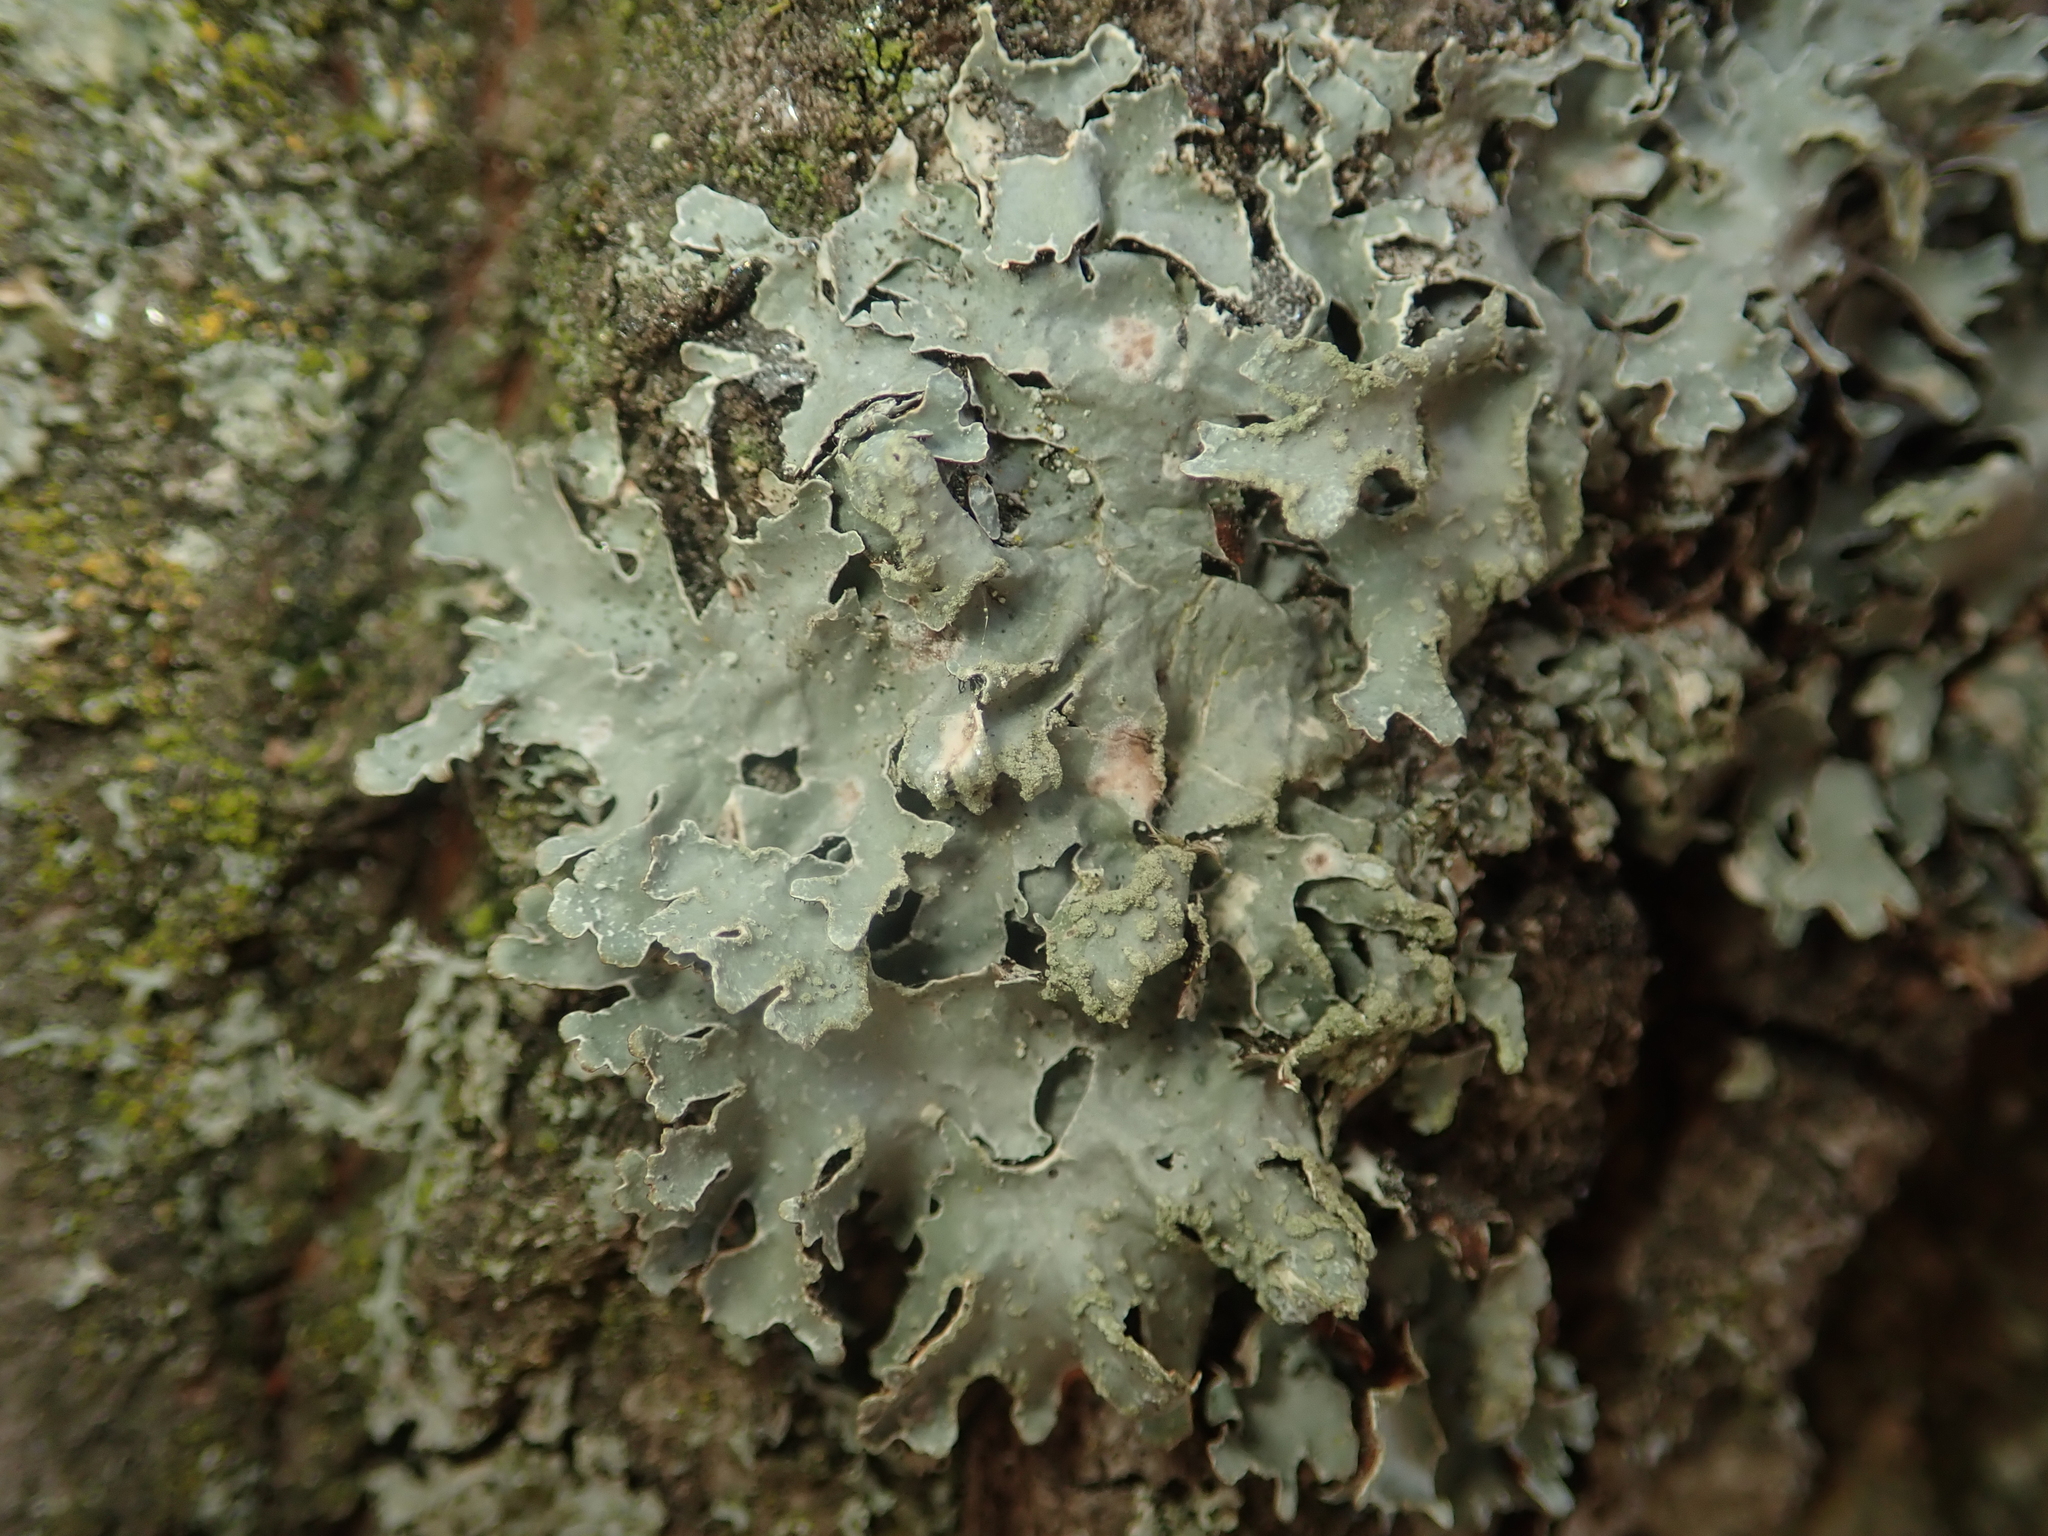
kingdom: Fungi
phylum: Ascomycota
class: Lecanoromycetes
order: Lecanorales
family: Parmeliaceae
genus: Parmelia
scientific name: Parmelia sulcata
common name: Netted shield lichen
